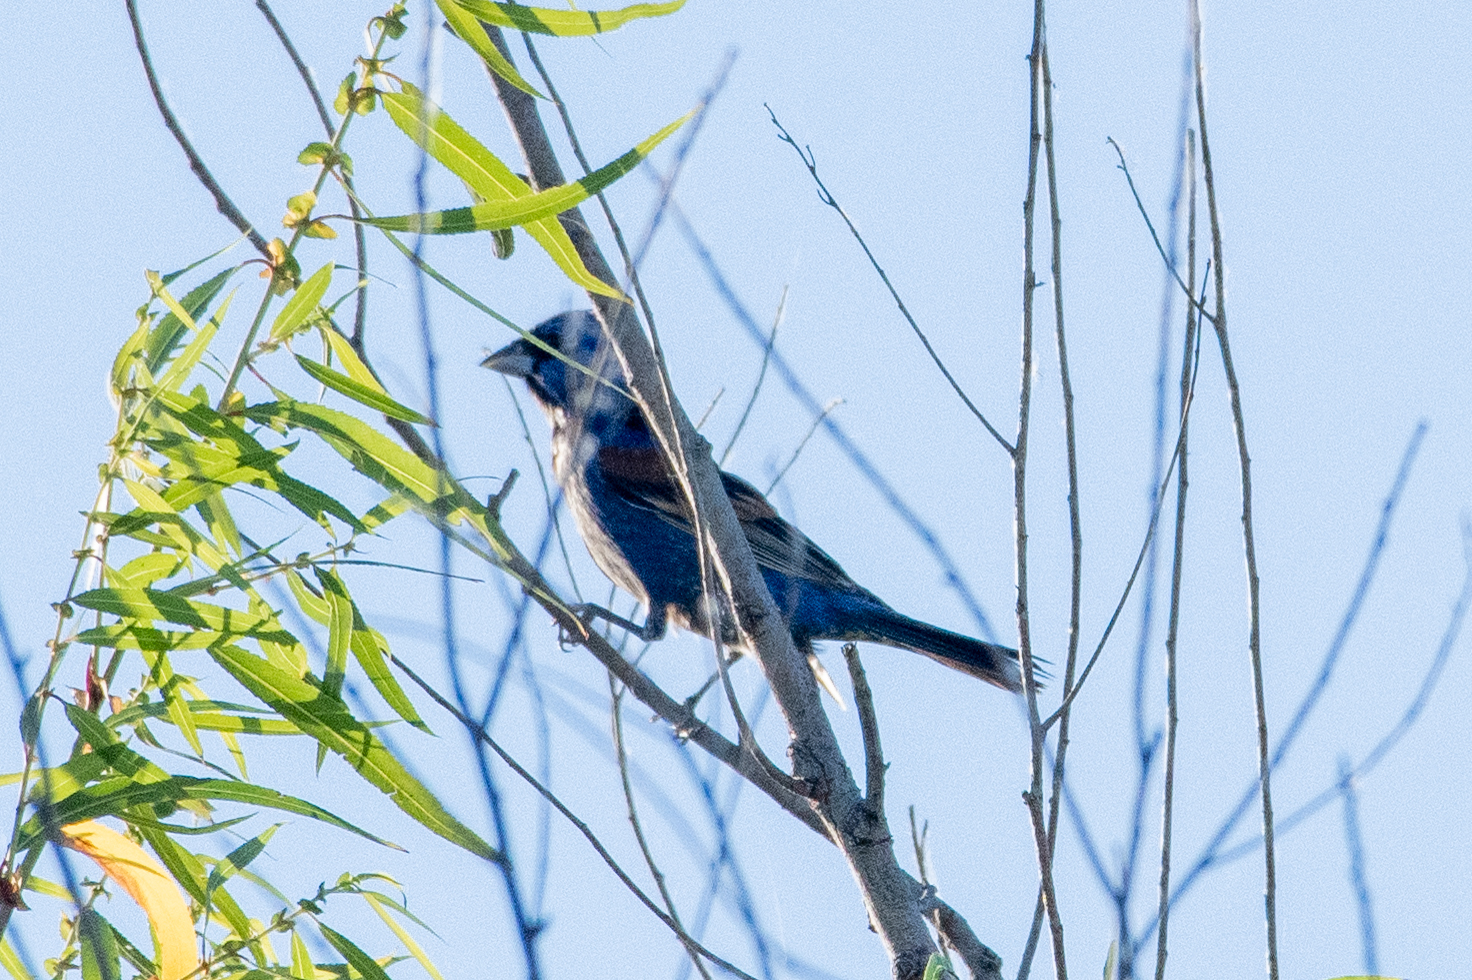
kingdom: Animalia
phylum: Chordata
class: Aves
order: Passeriformes
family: Cardinalidae
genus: Passerina
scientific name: Passerina caerulea
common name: Blue grosbeak
